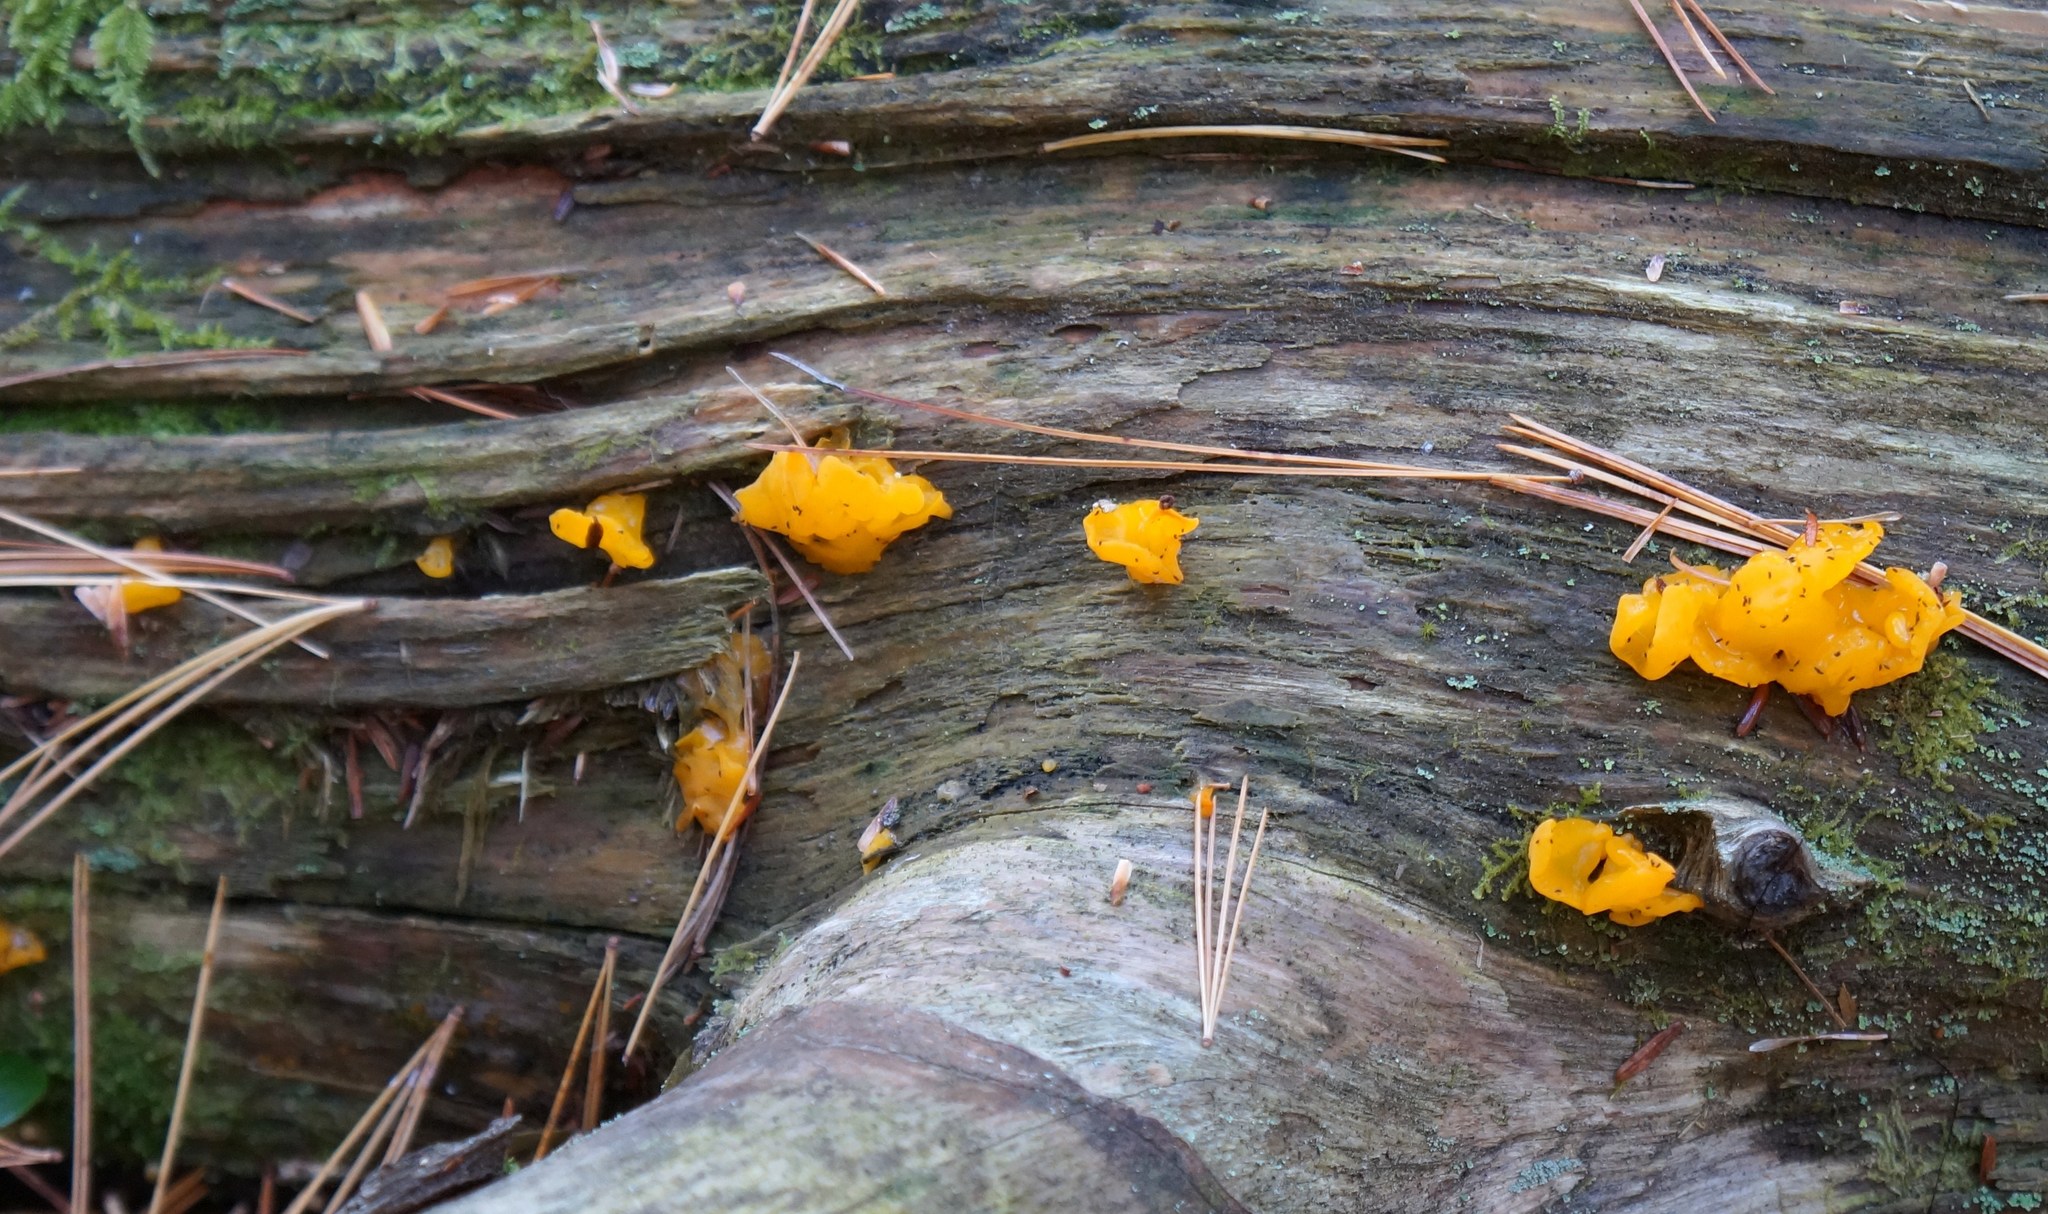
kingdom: Fungi
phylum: Basidiomycota
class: Dacrymycetes
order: Dacrymycetales
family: Dacrymycetaceae
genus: Dacrymyces
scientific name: Dacrymyces chrysospermus
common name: Orange jelly spot
